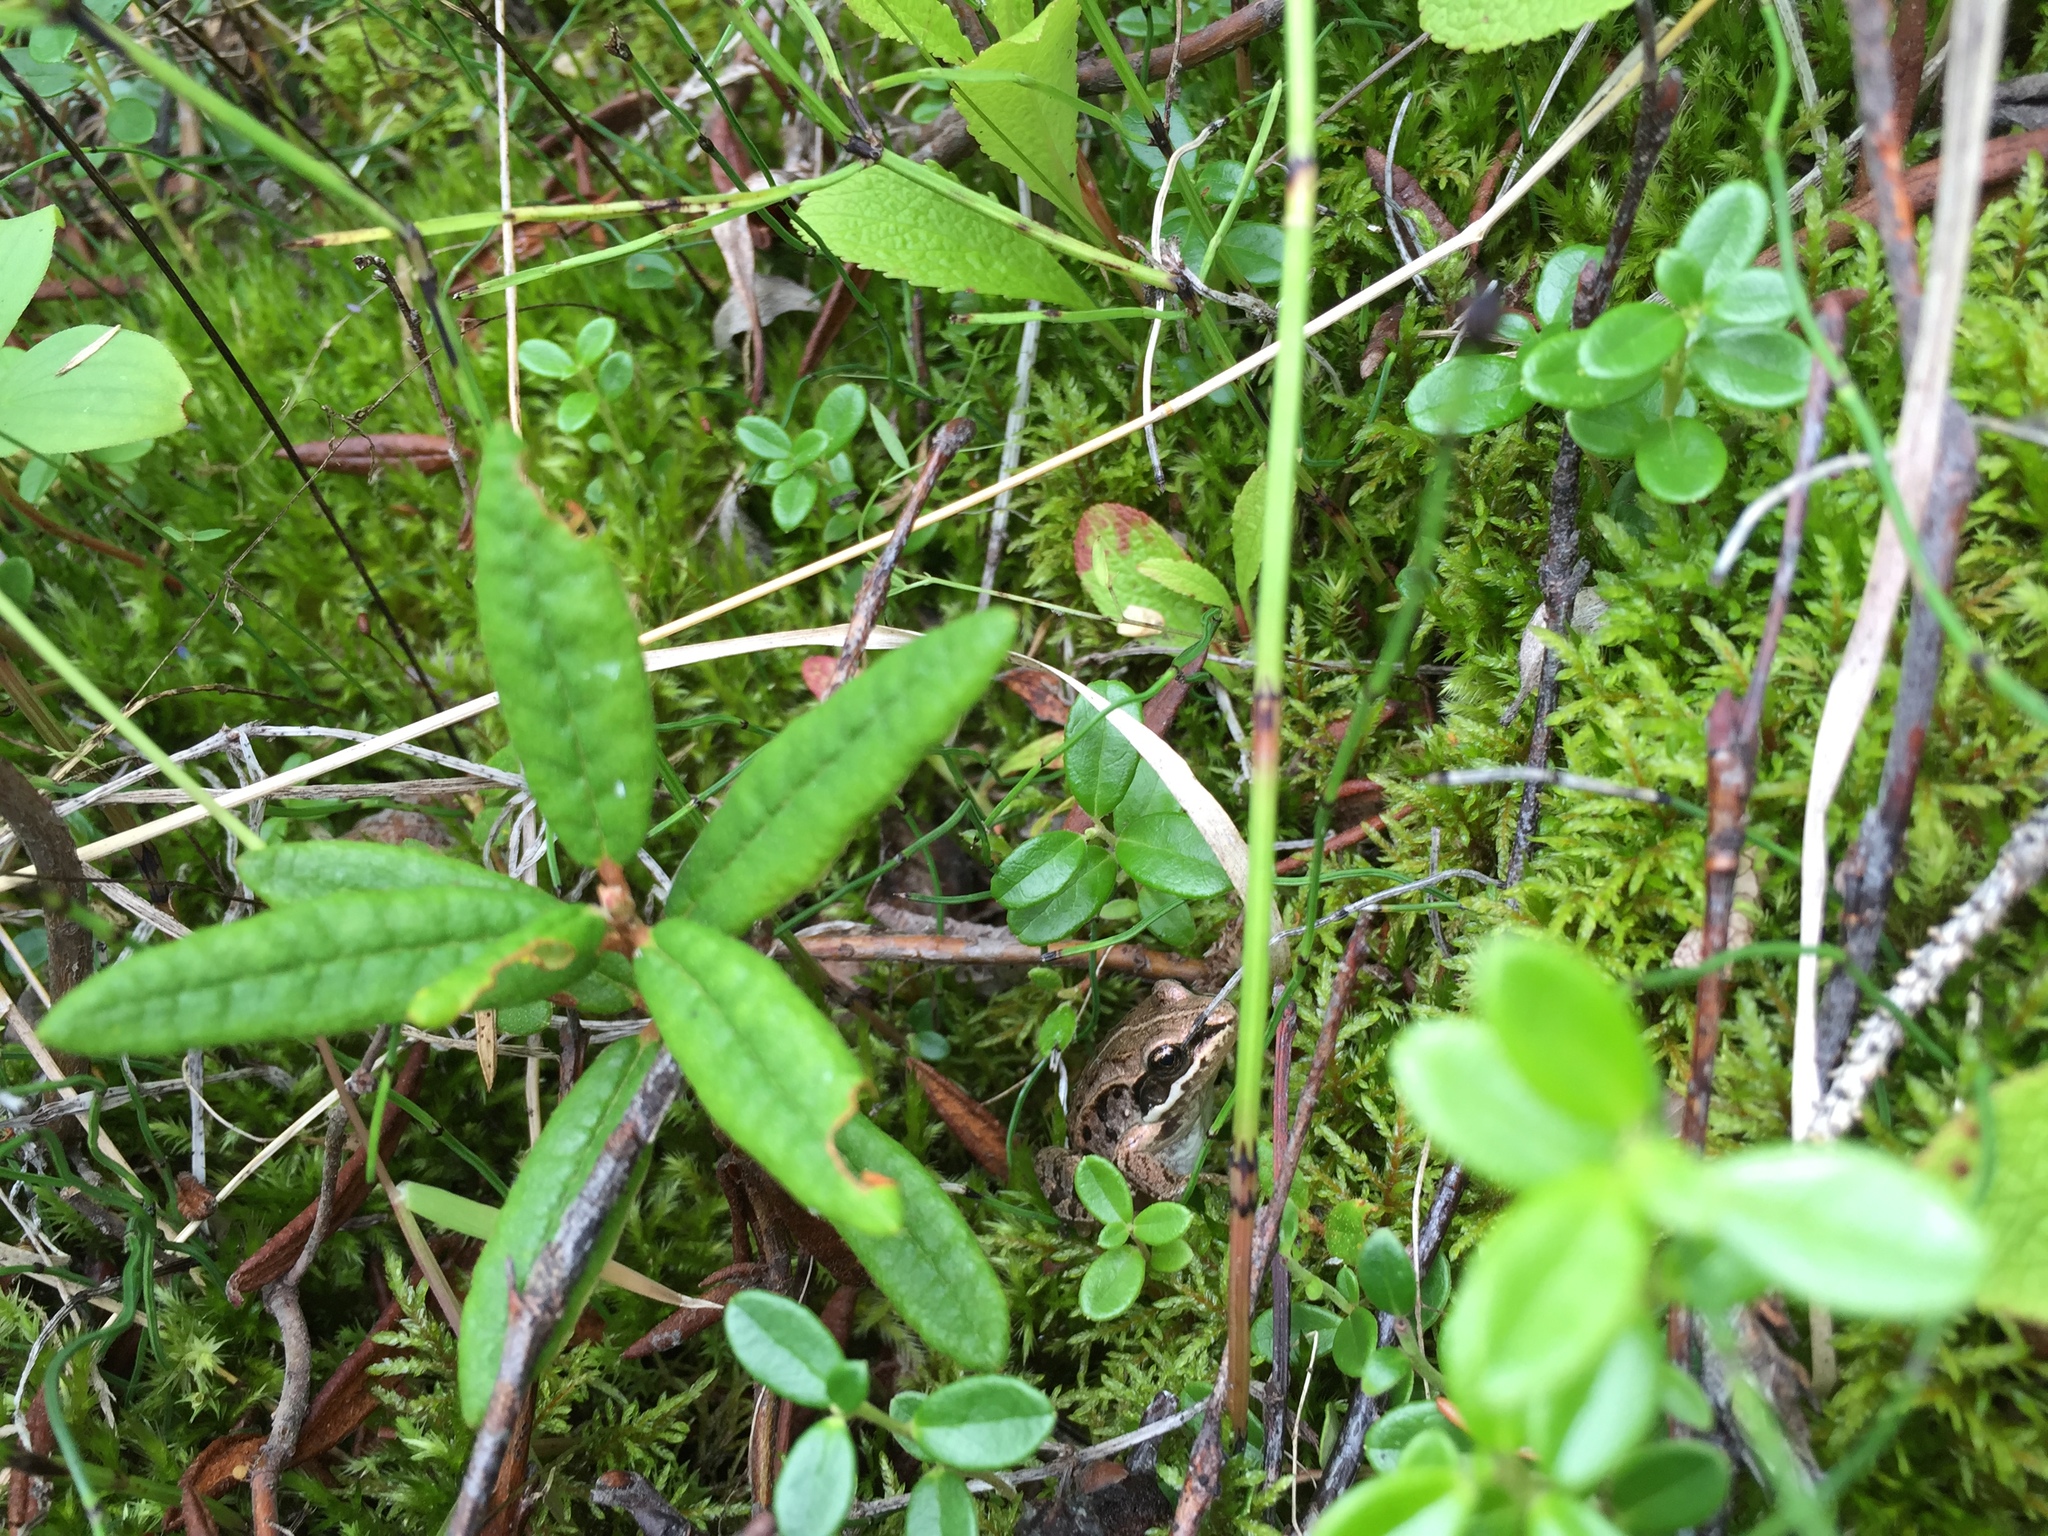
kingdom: Animalia
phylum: Chordata
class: Amphibia
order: Anura
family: Ranidae
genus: Lithobates
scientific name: Lithobates sylvaticus
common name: Wood frog
